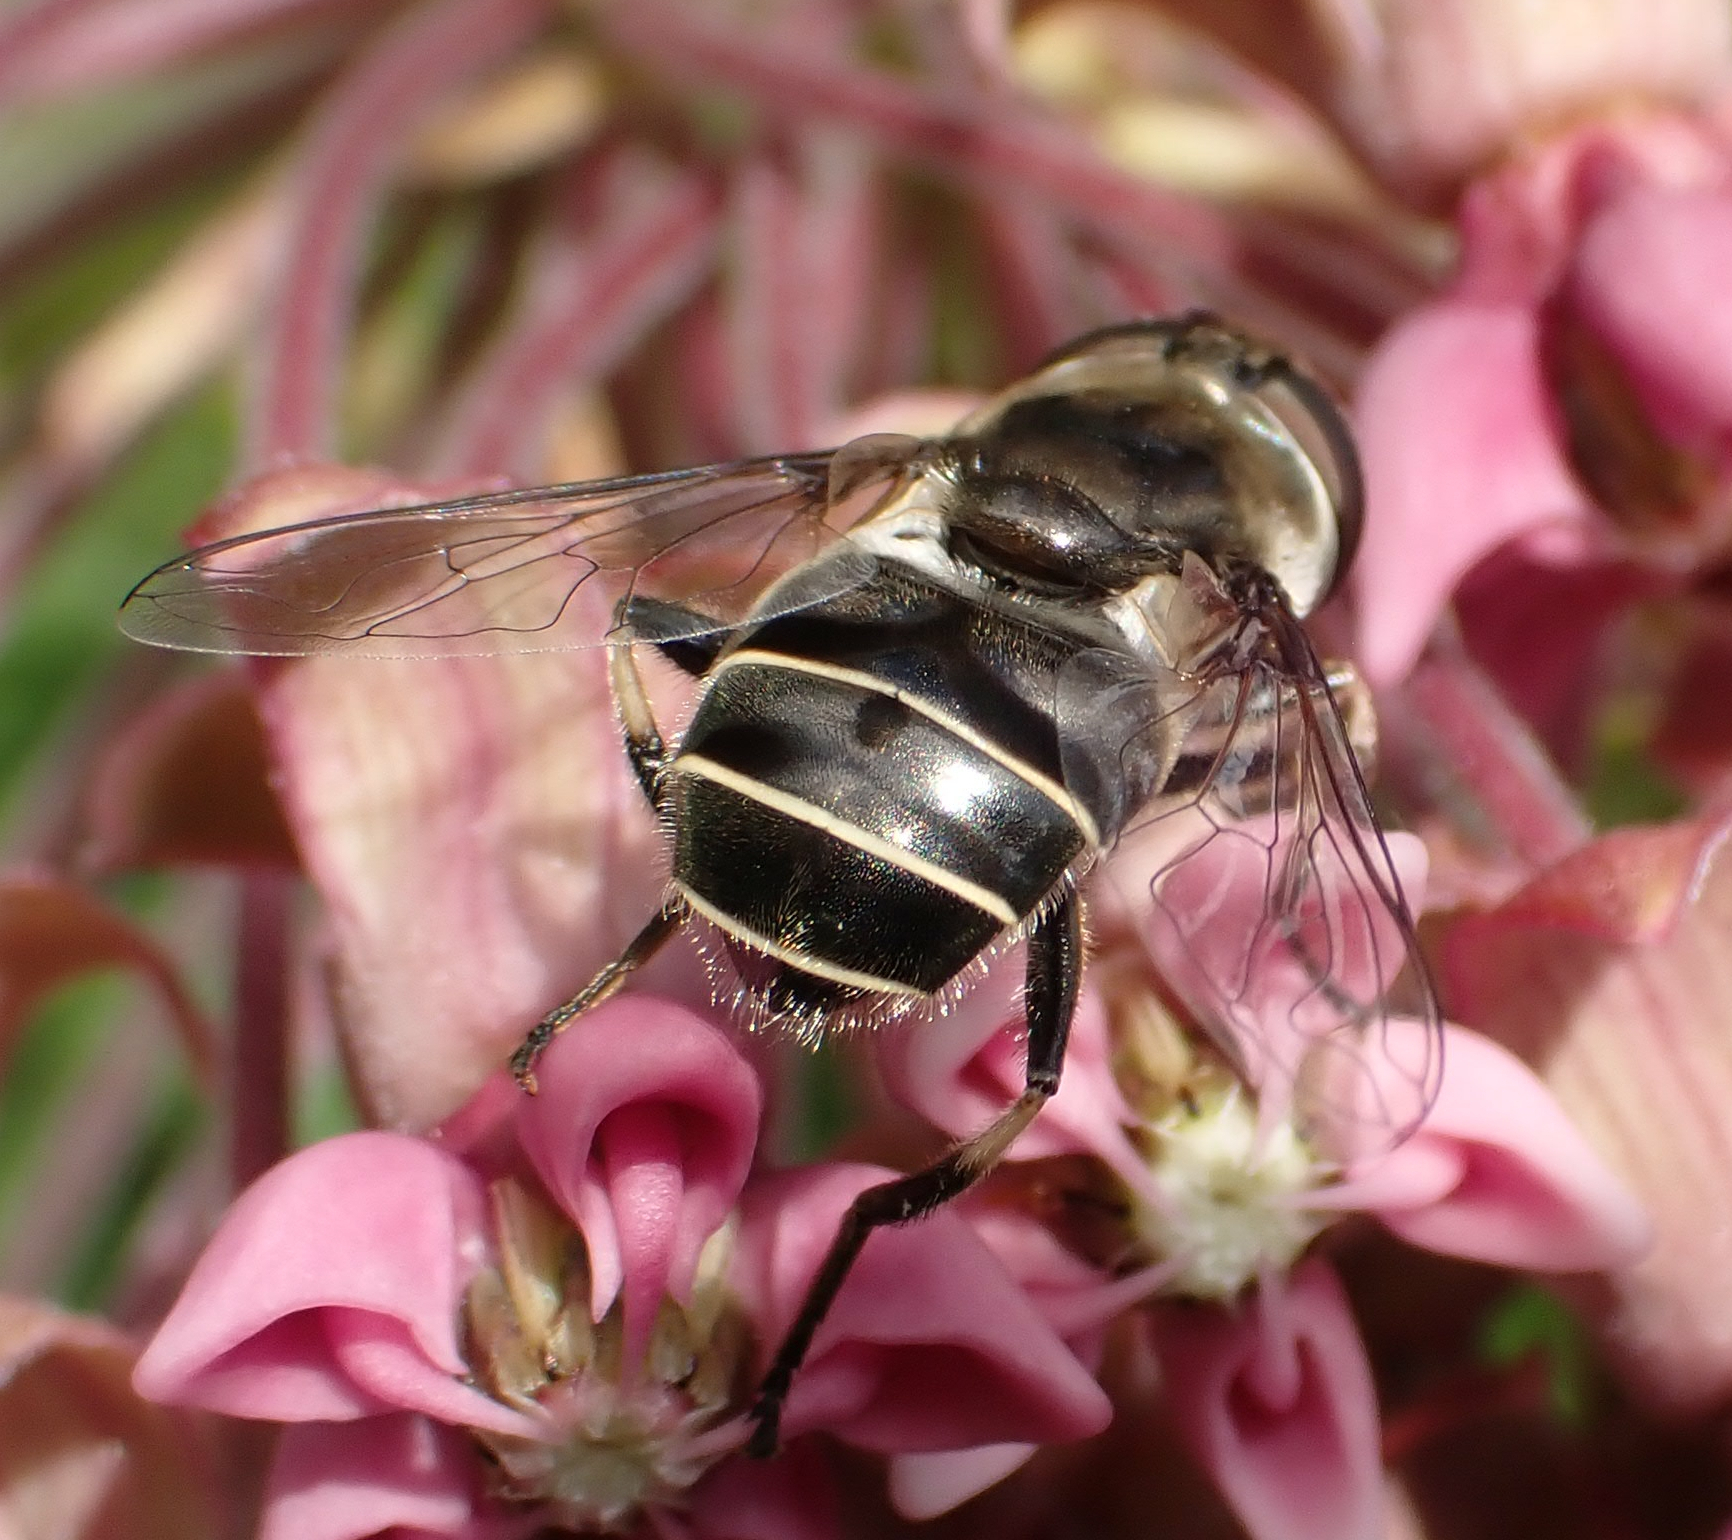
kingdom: Animalia
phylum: Arthropoda
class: Insecta
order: Diptera
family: Syrphidae
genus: Eristalis
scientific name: Eristalis dimidiata
